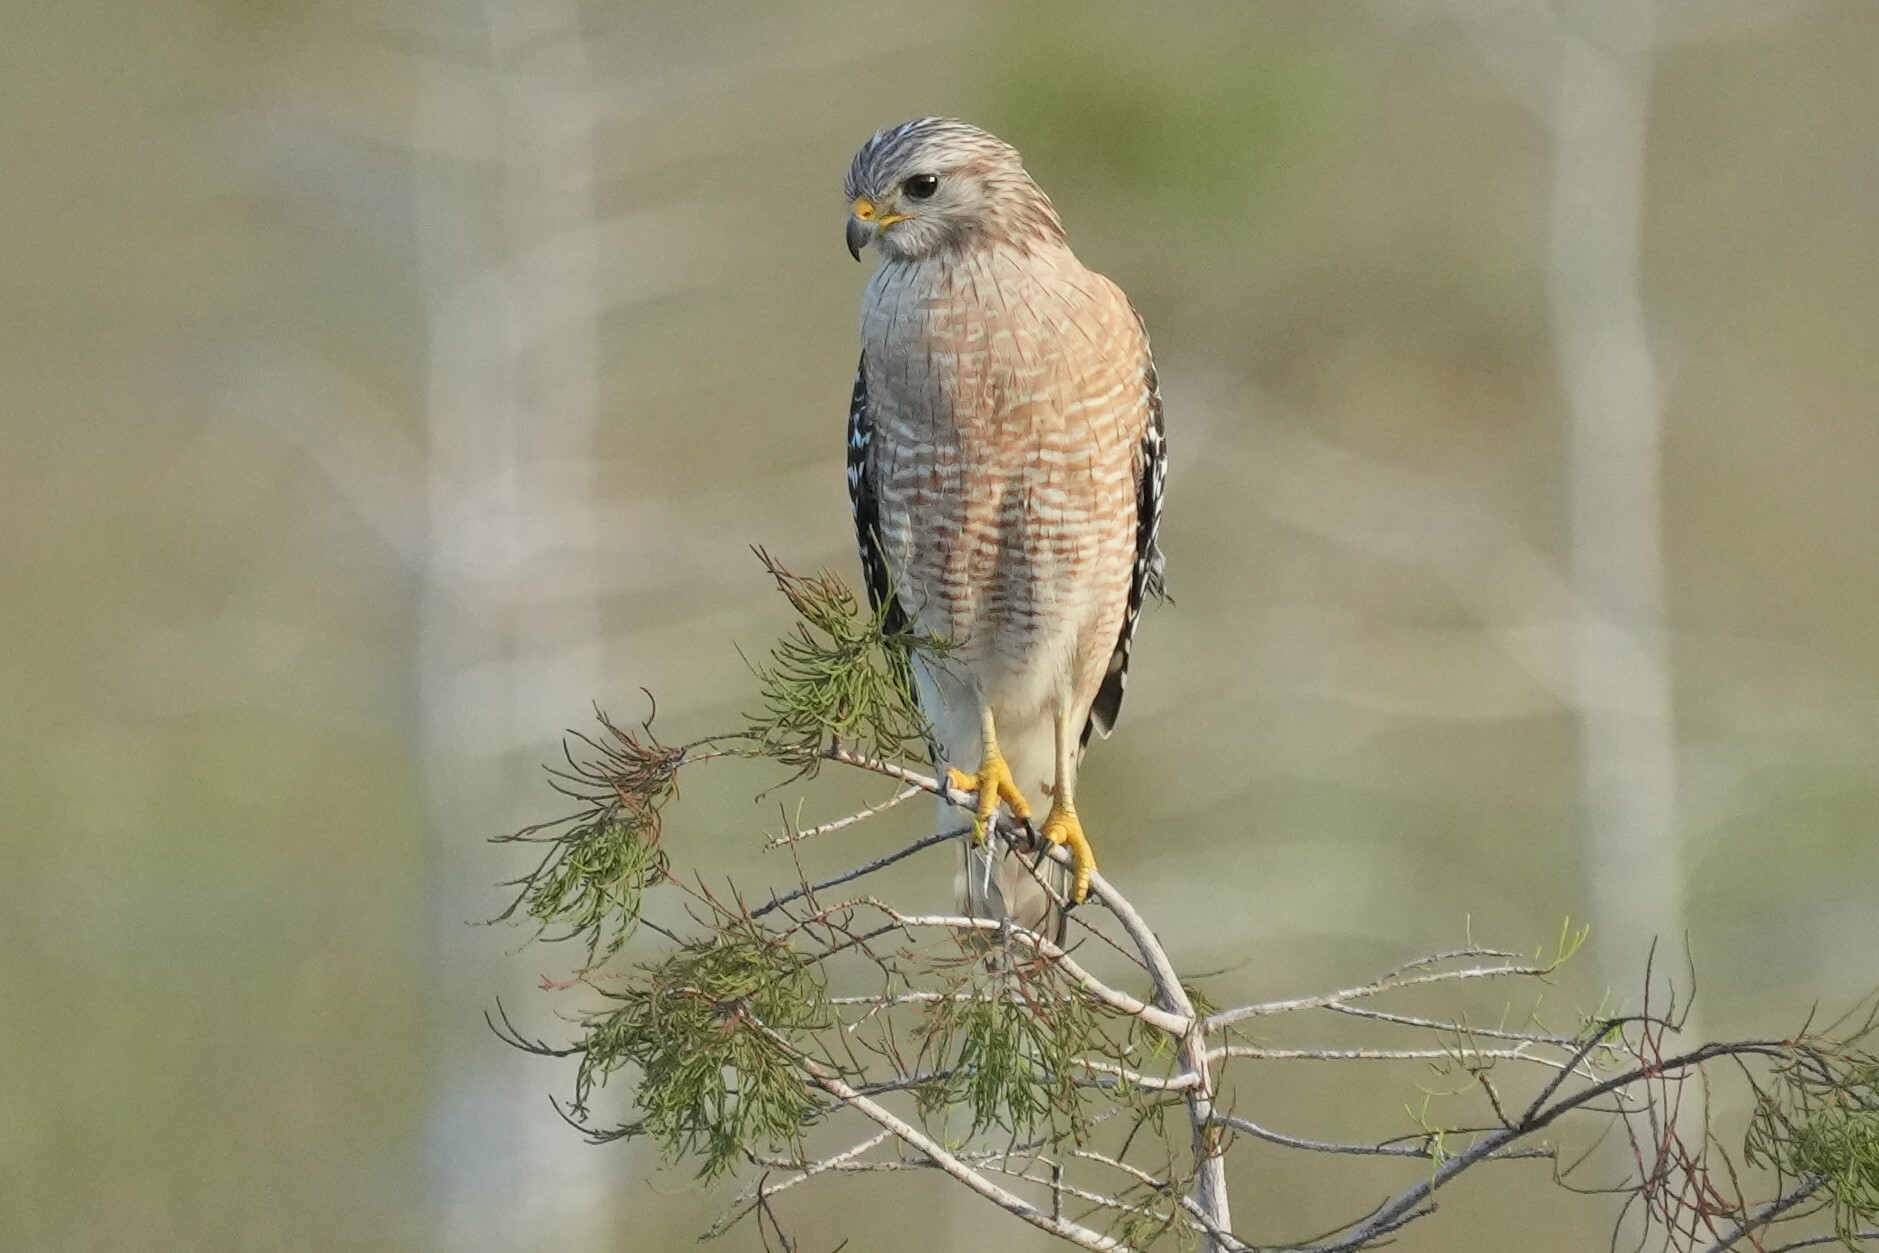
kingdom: Animalia
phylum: Chordata
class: Aves
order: Accipitriformes
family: Accipitridae
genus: Buteo
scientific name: Buteo lineatus
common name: Red-shouldered hawk
